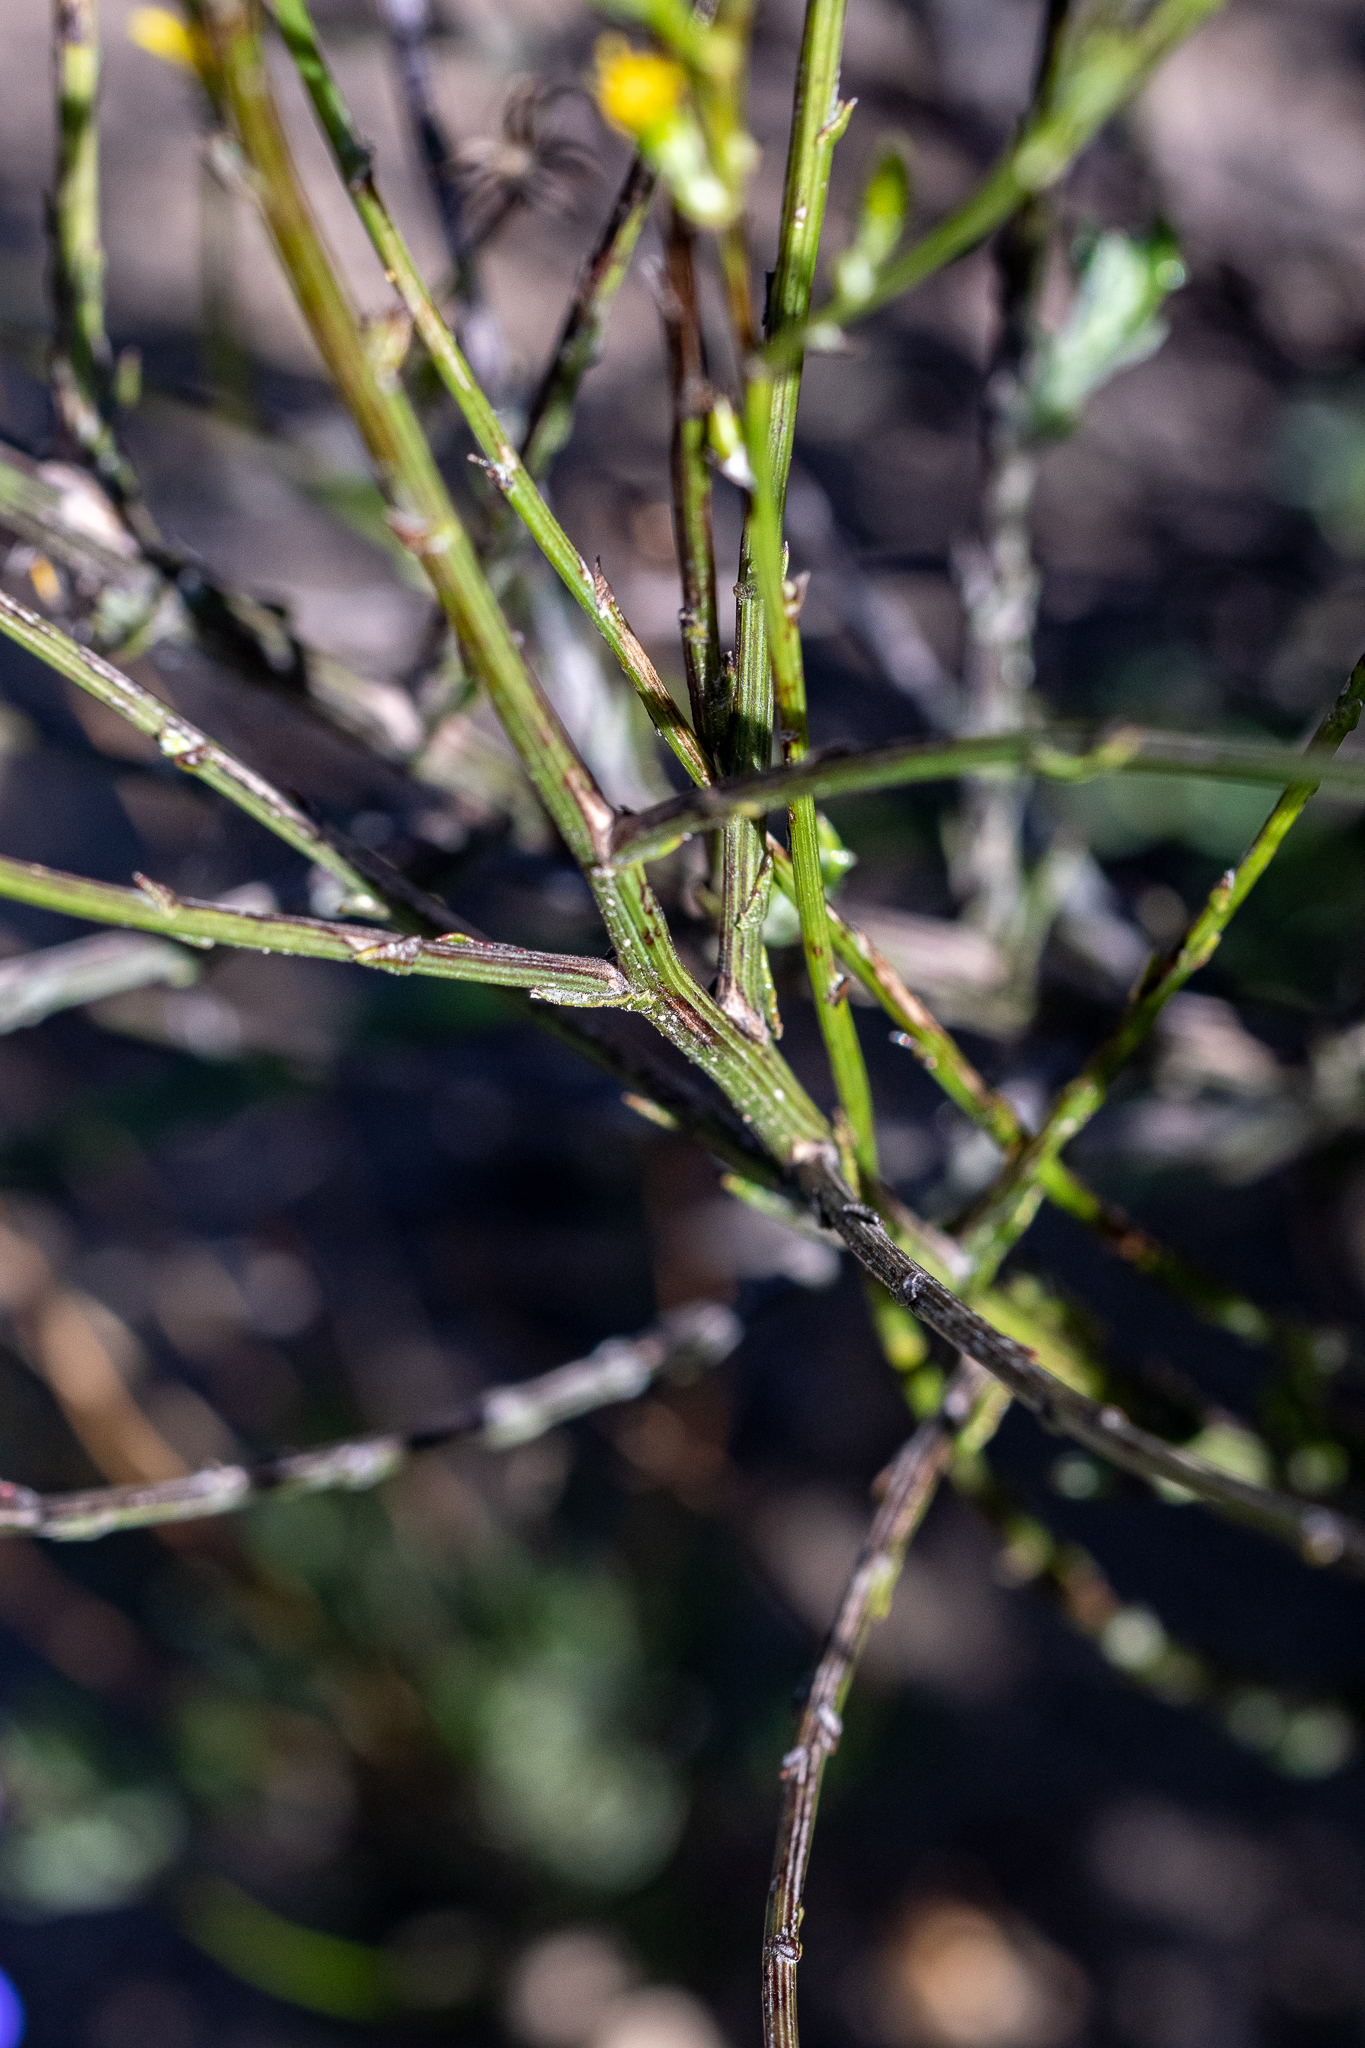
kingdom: Plantae
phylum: Tracheophyta
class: Magnoliopsida
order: Asterales
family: Asteraceae
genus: Senecio
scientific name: Senecio pubigerus
